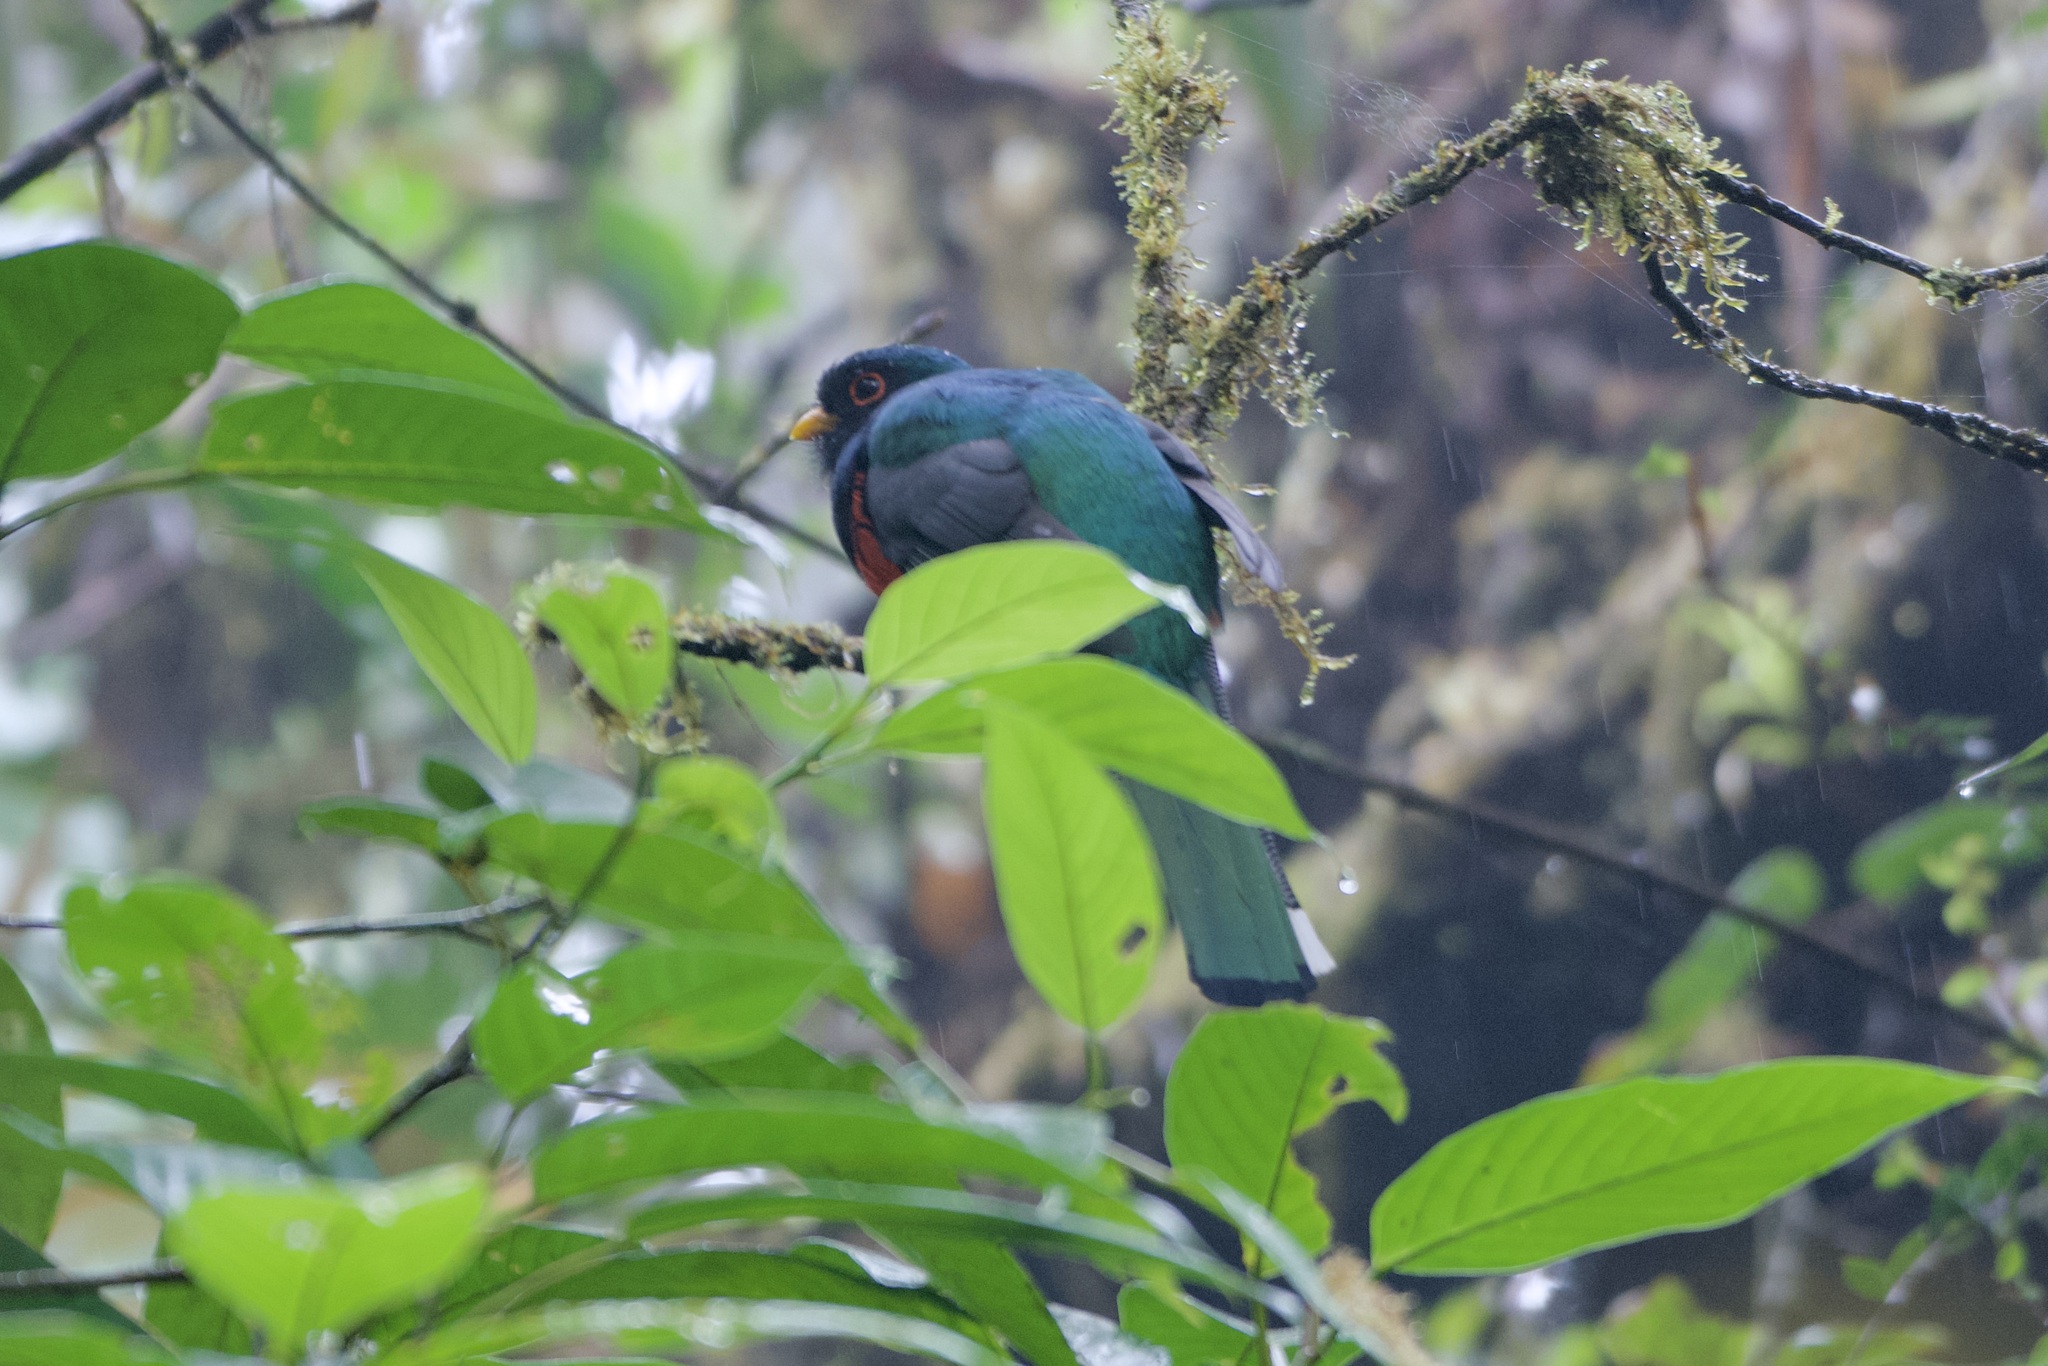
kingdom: Animalia
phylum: Chordata
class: Aves
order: Trogoniformes
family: Trogonidae
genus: Trogon
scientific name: Trogon personatus
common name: Masked trogon
